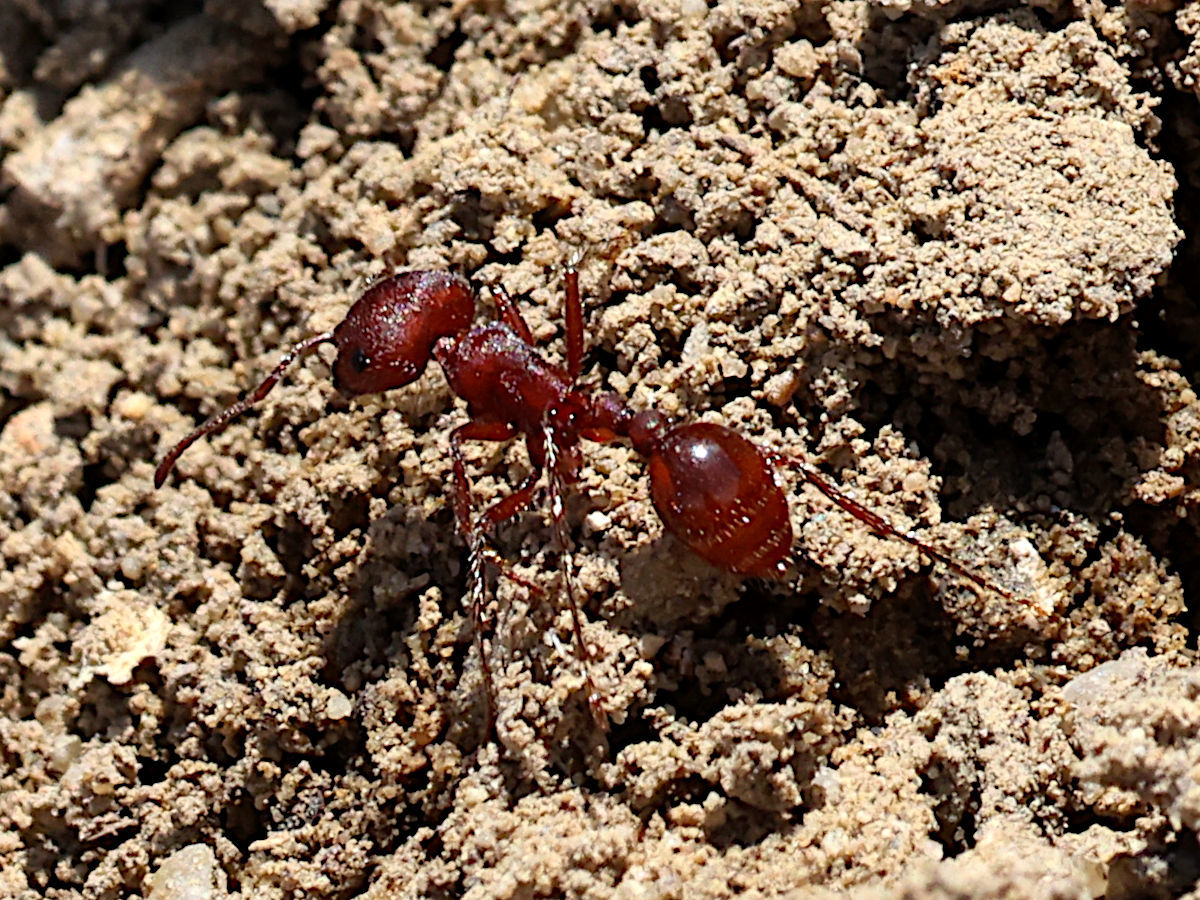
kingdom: Animalia
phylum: Arthropoda
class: Insecta
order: Hymenoptera
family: Formicidae
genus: Pogonomyrmex
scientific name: Pogonomyrmex occidentalis
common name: Western harvester ant
